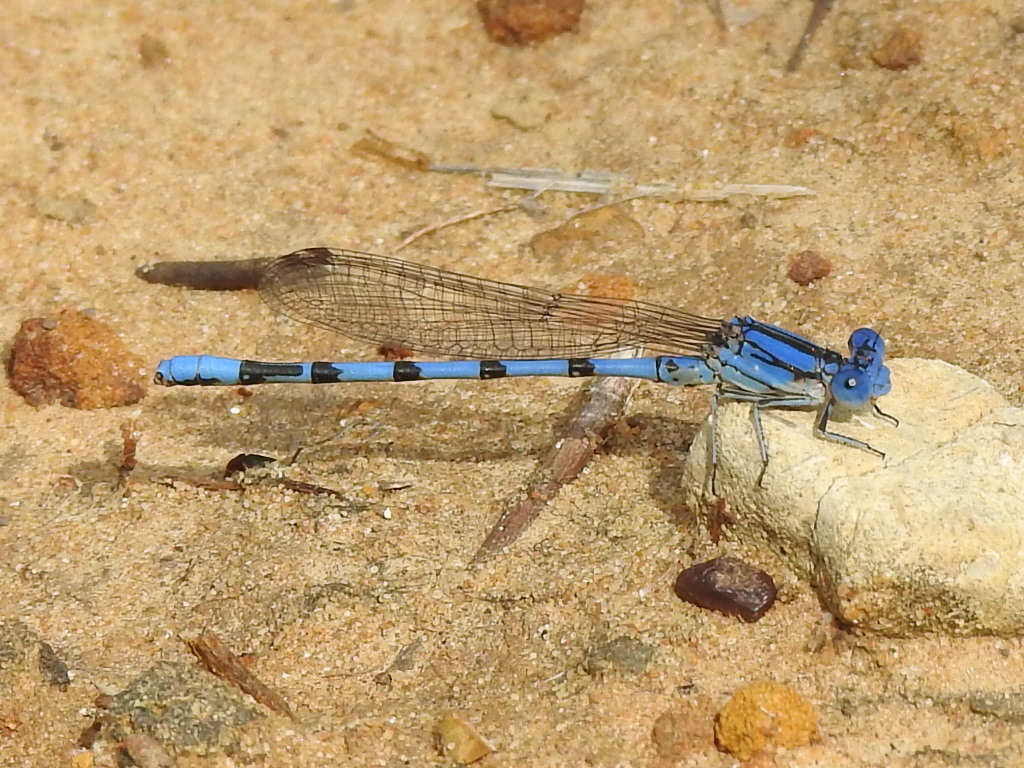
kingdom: Animalia
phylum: Arthropoda
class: Insecta
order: Odonata
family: Coenagrionidae
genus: Argia
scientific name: Argia nahuana
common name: Aztec dancer
